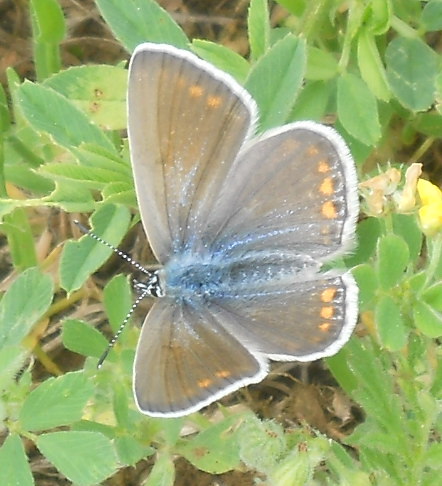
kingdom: Animalia
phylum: Arthropoda
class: Insecta
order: Lepidoptera
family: Lycaenidae
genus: Polyommatus
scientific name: Polyommatus icarus
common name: Common blue
